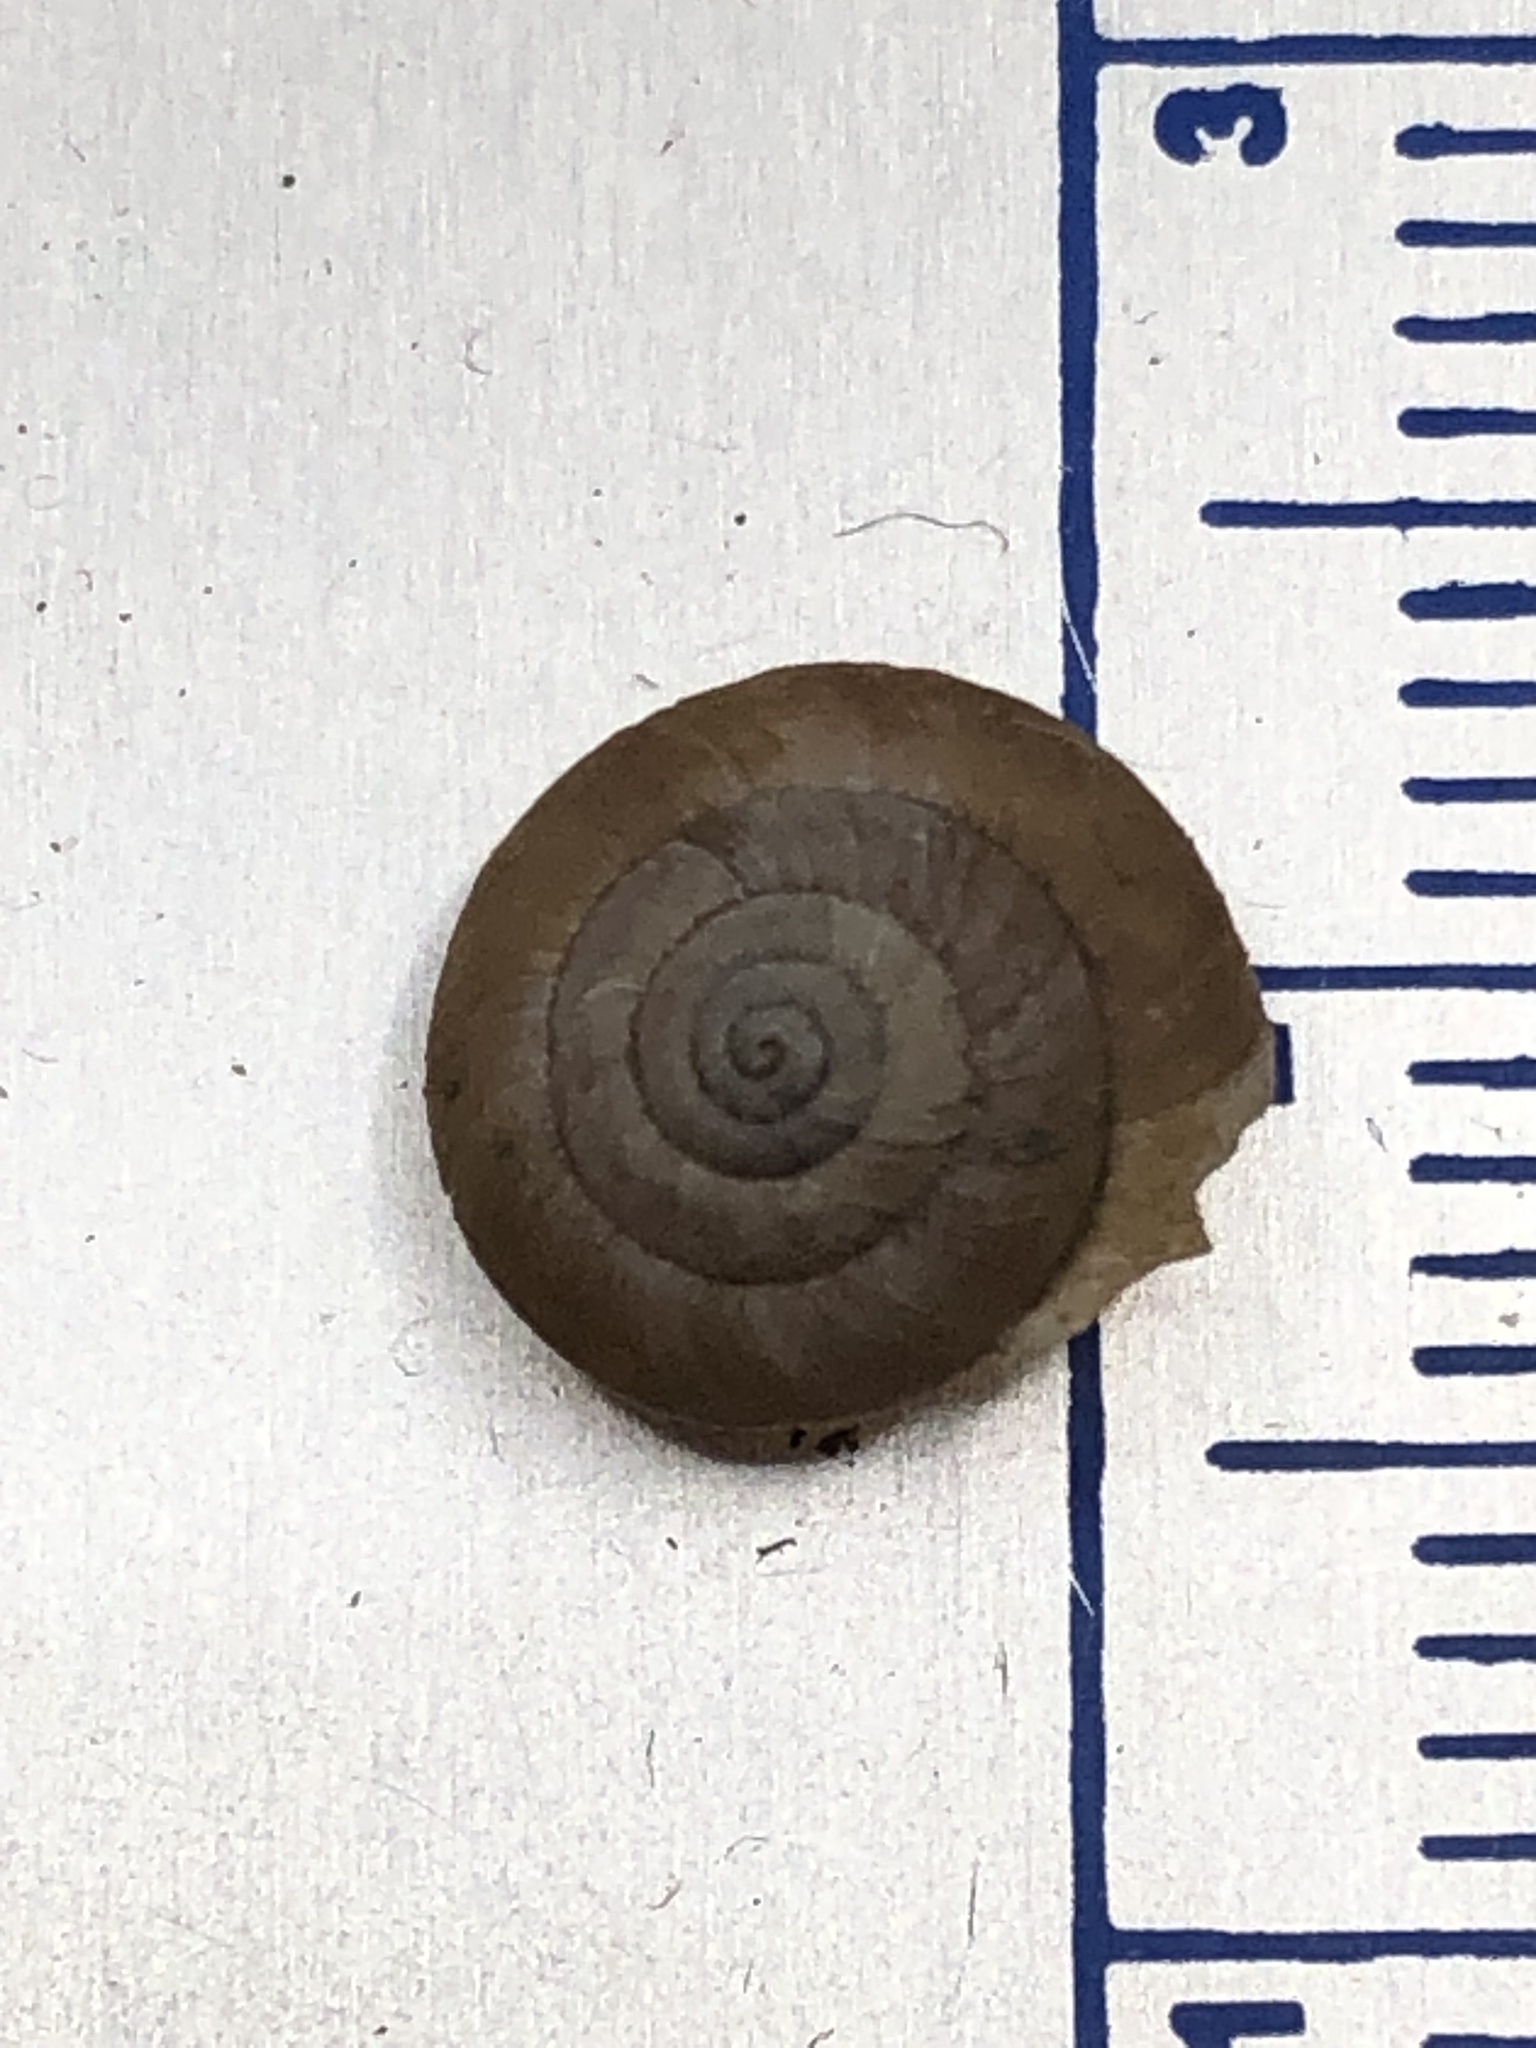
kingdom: Animalia
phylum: Mollusca
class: Gastropoda
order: Stylommatophora
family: Hygromiidae
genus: Trochulus
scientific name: Trochulus hispidus
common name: Hairy snail
